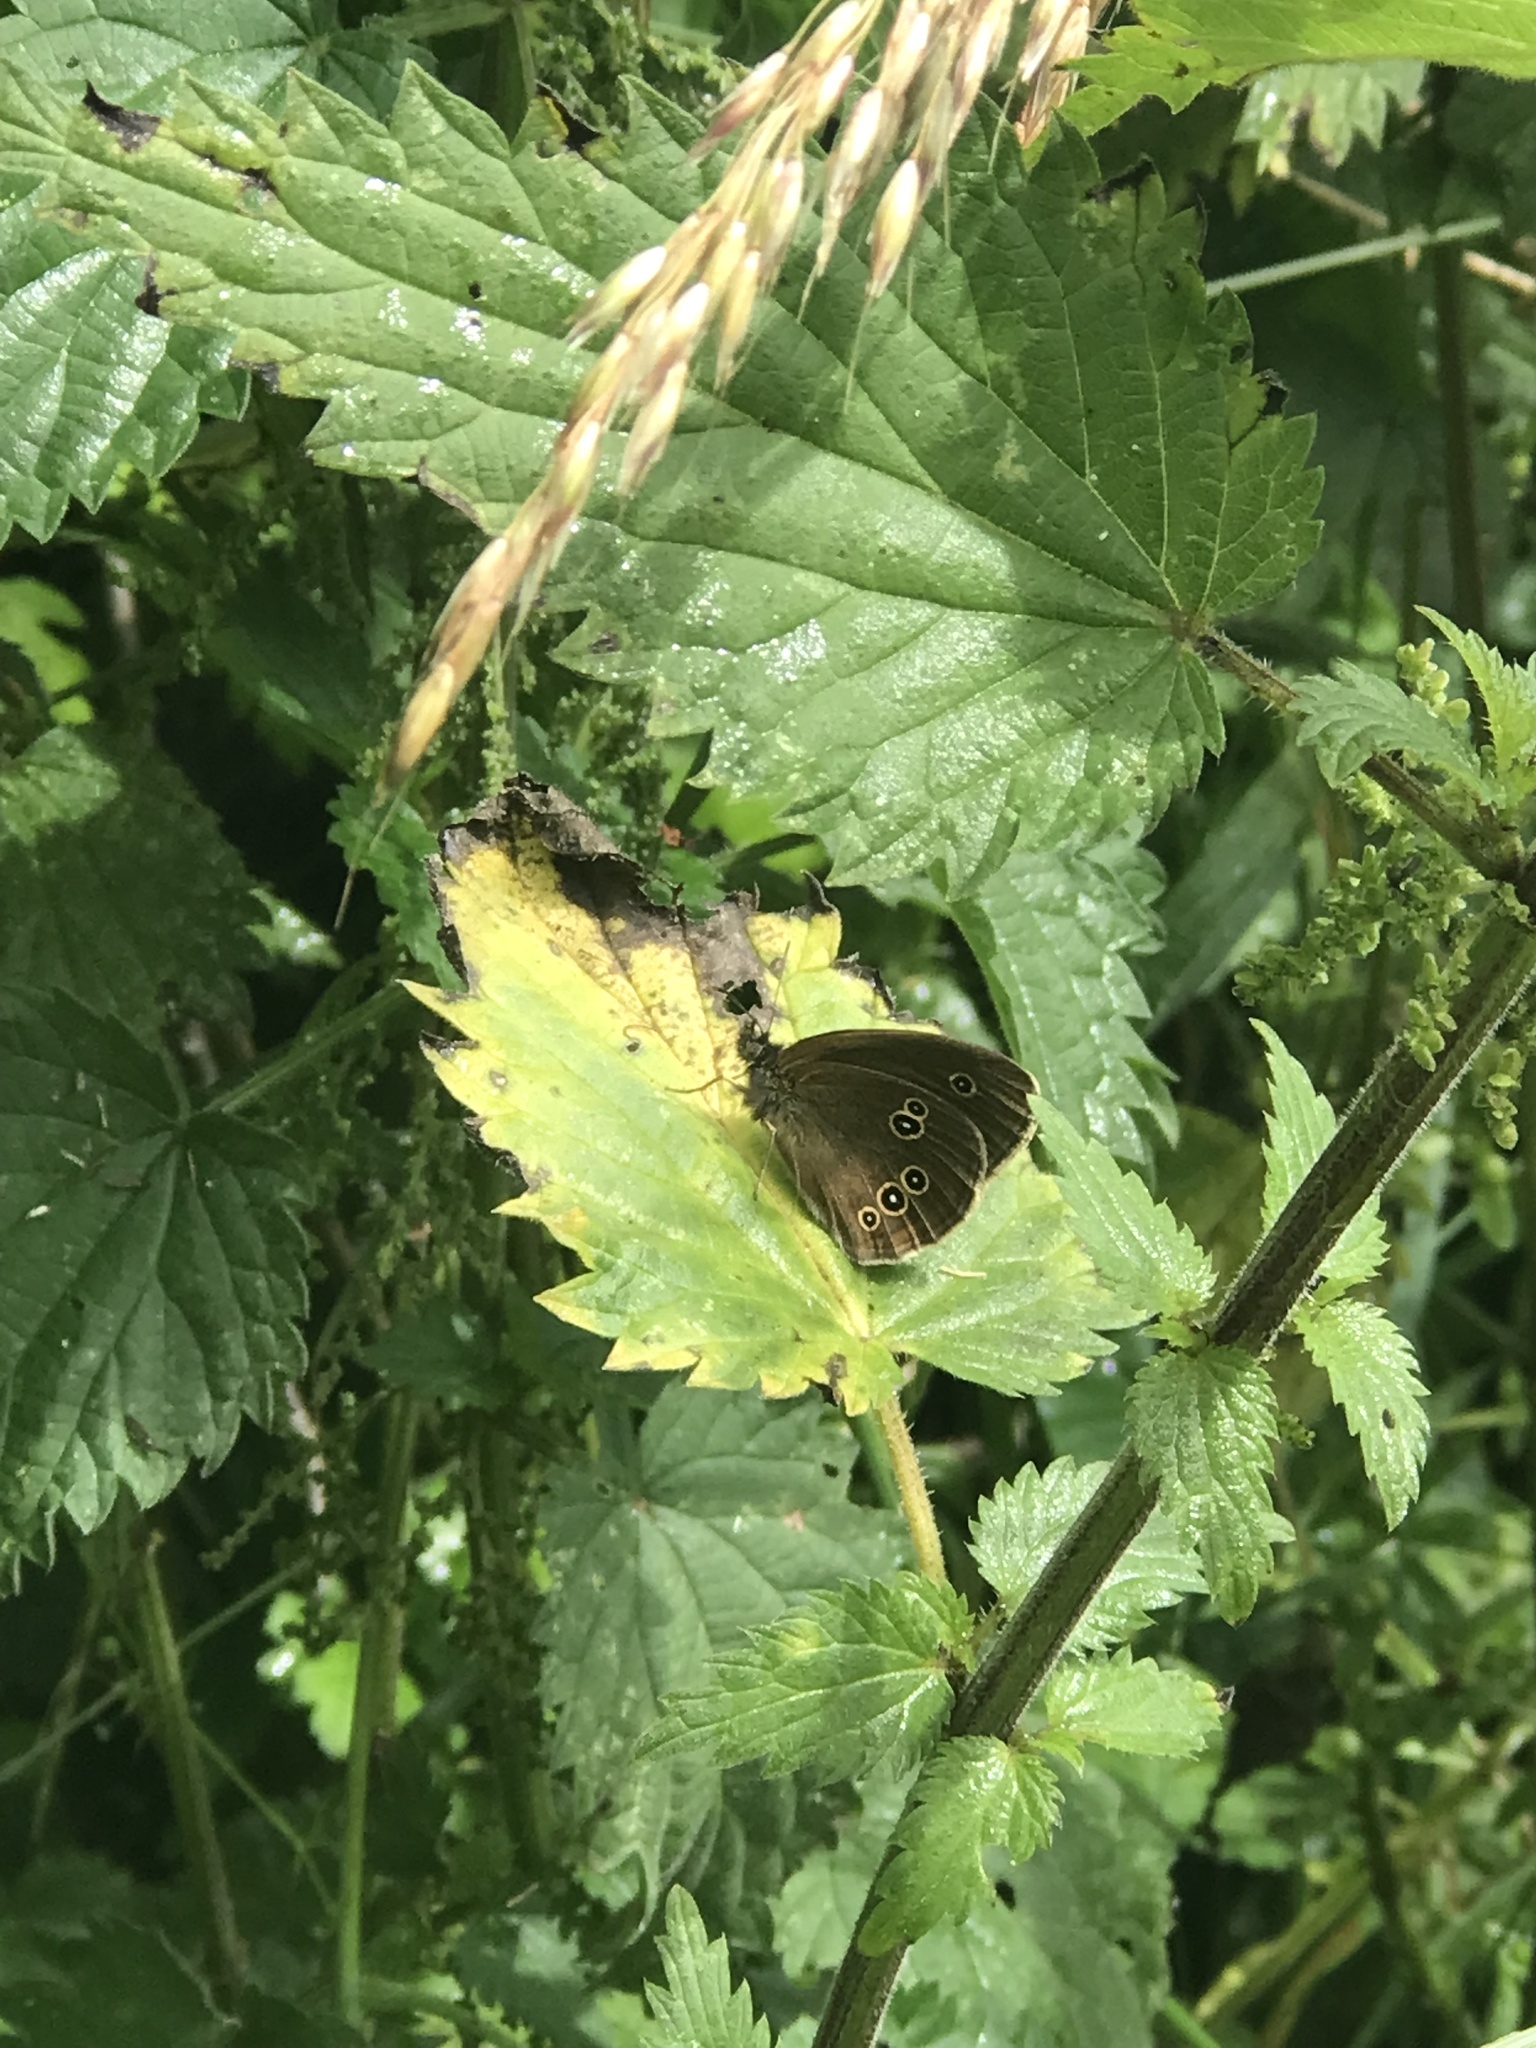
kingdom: Animalia
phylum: Arthropoda
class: Insecta
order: Lepidoptera
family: Nymphalidae
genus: Aphantopus
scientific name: Aphantopus hyperantus
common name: Ringlet
